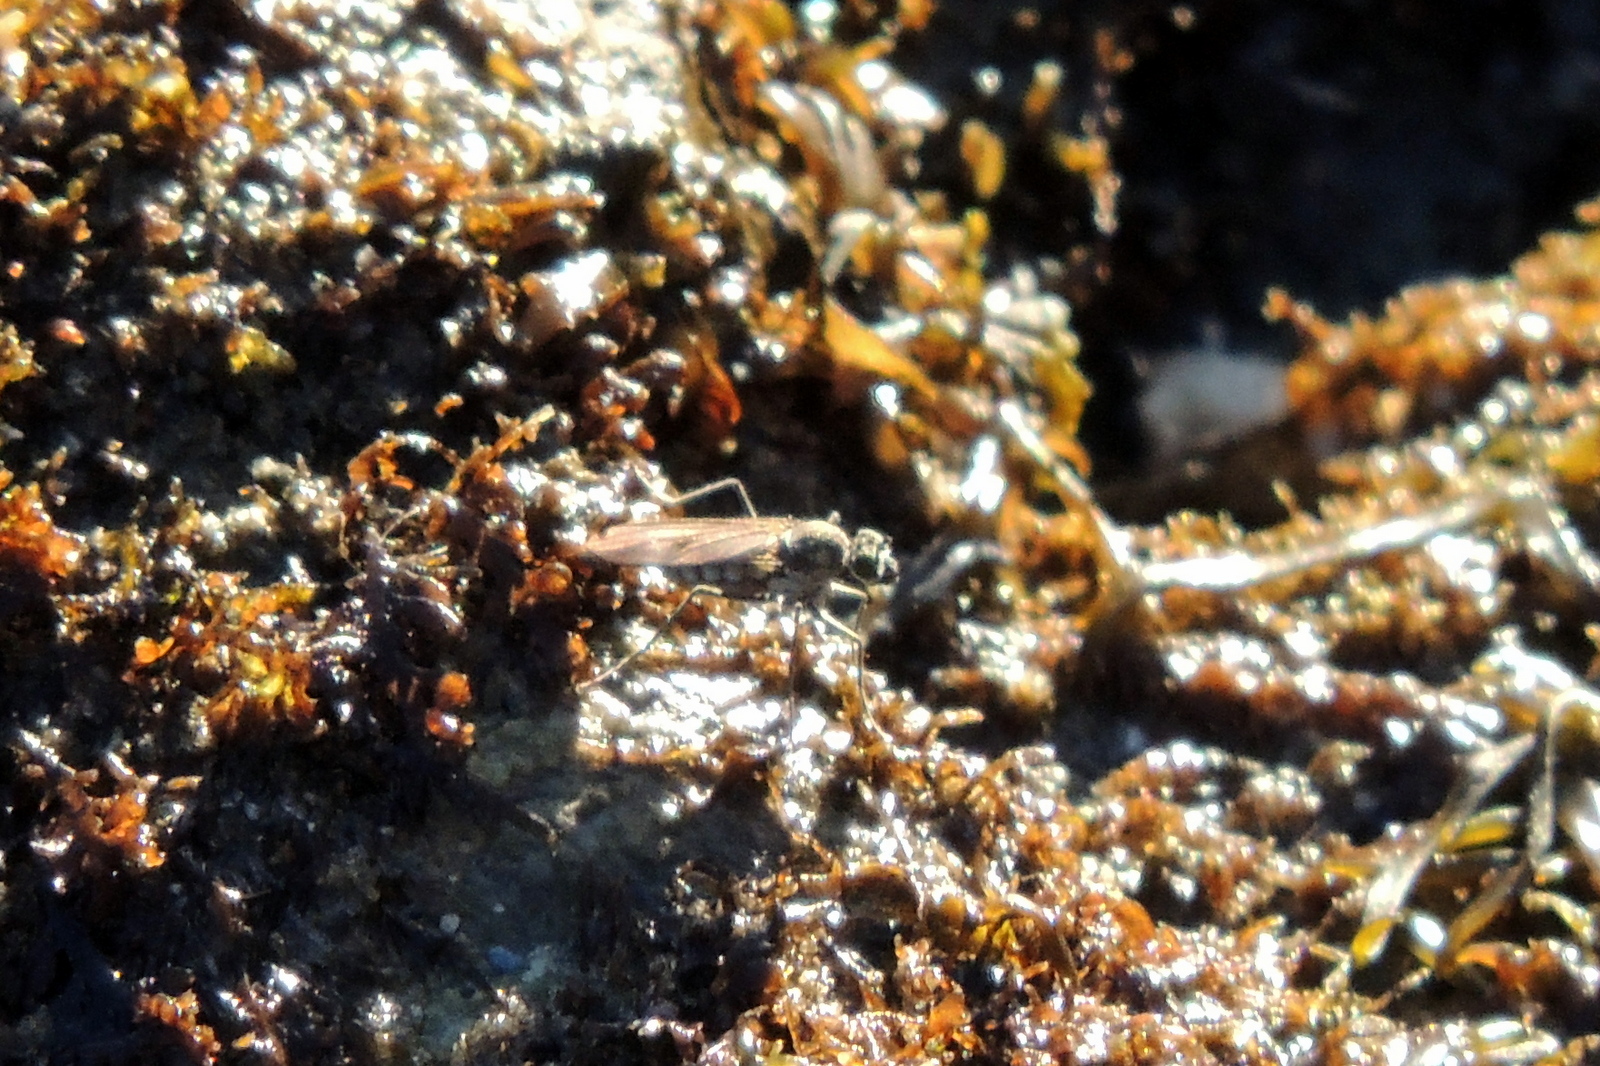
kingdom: Animalia
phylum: Arthropoda
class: Insecta
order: Diptera
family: Dolichopodidae
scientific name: Dolichopodidae
